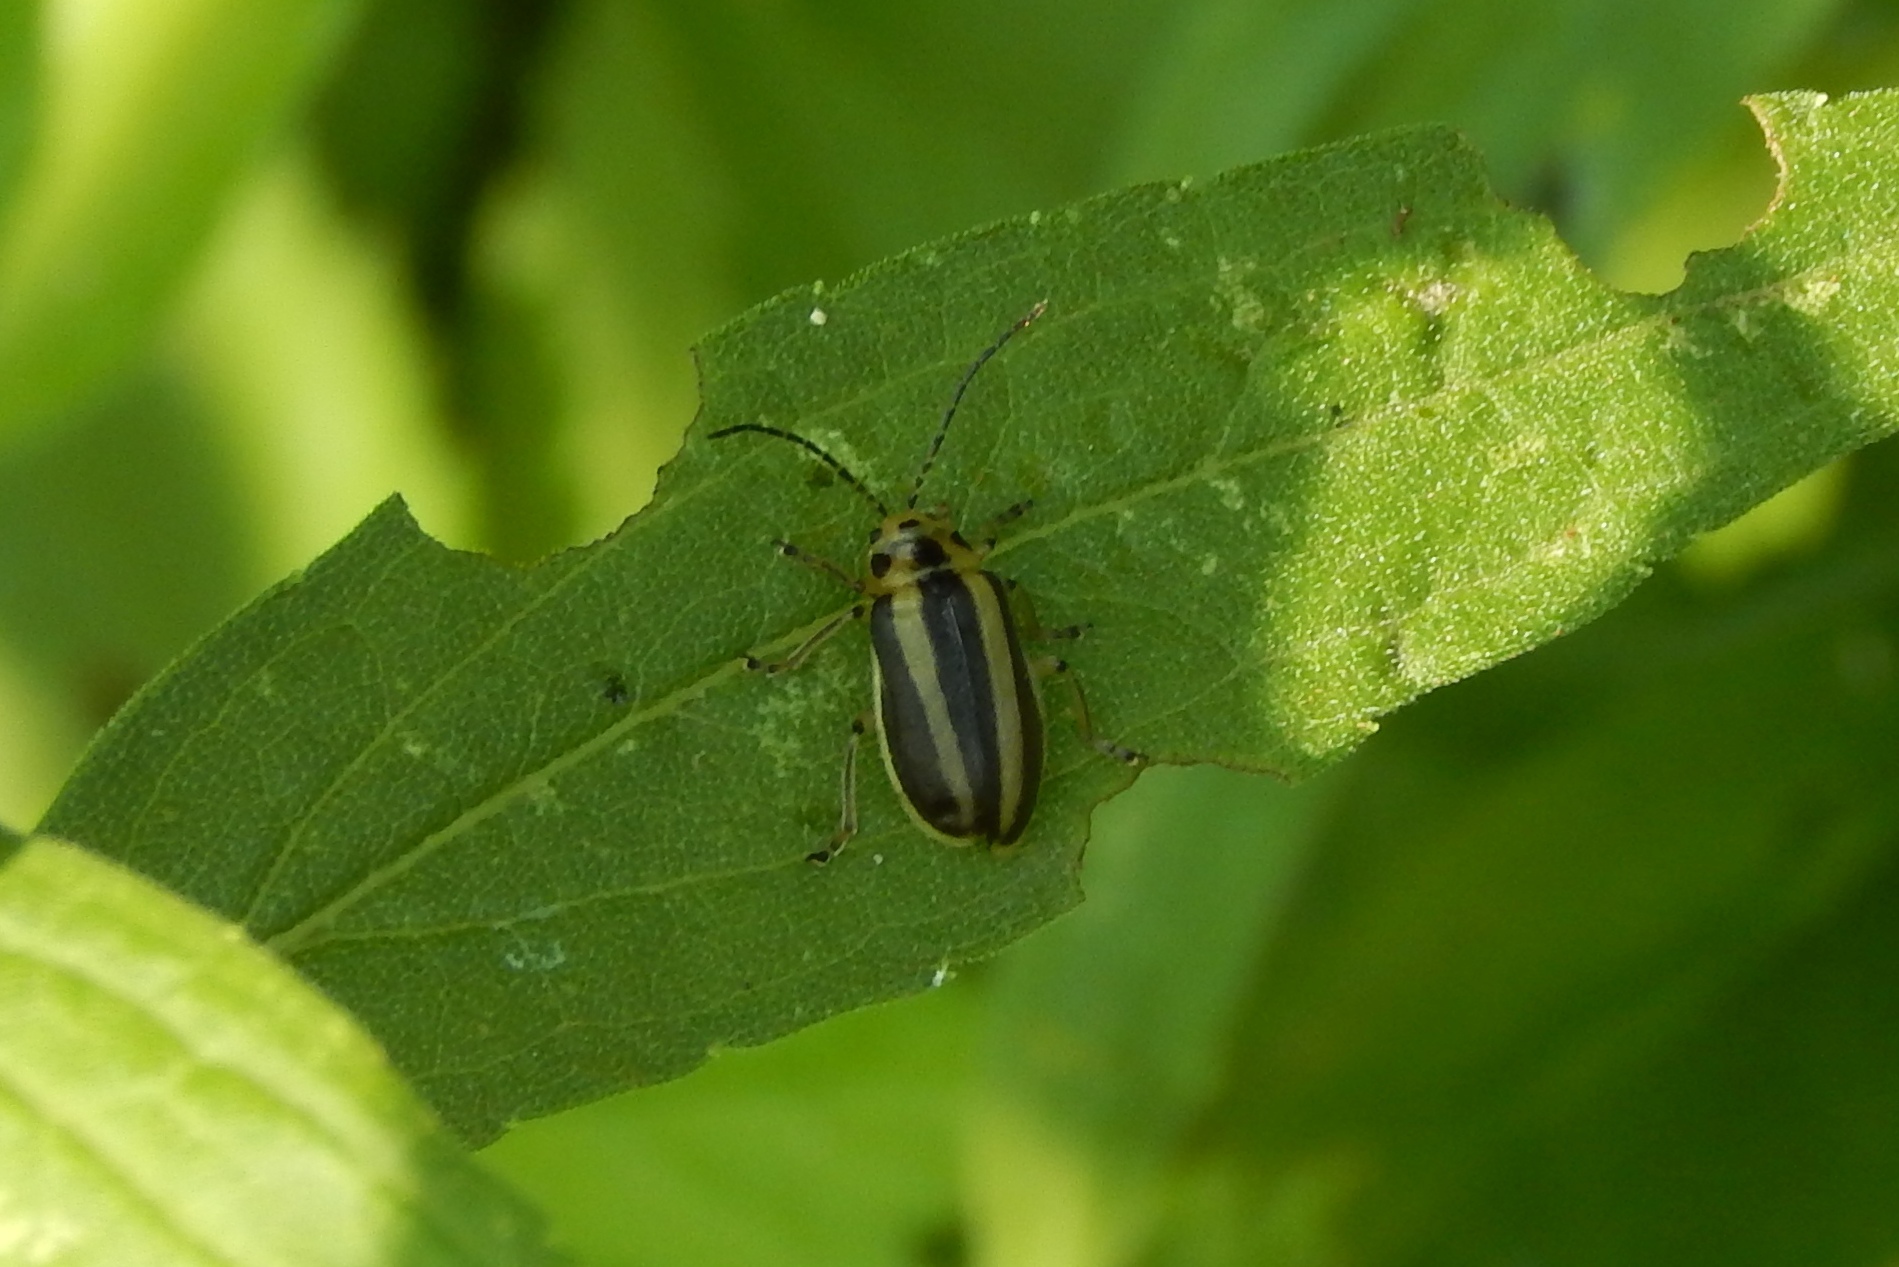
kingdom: Animalia
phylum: Arthropoda
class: Insecta
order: Coleoptera
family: Chrysomelidae
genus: Trirhabda
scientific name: Trirhabda adela
